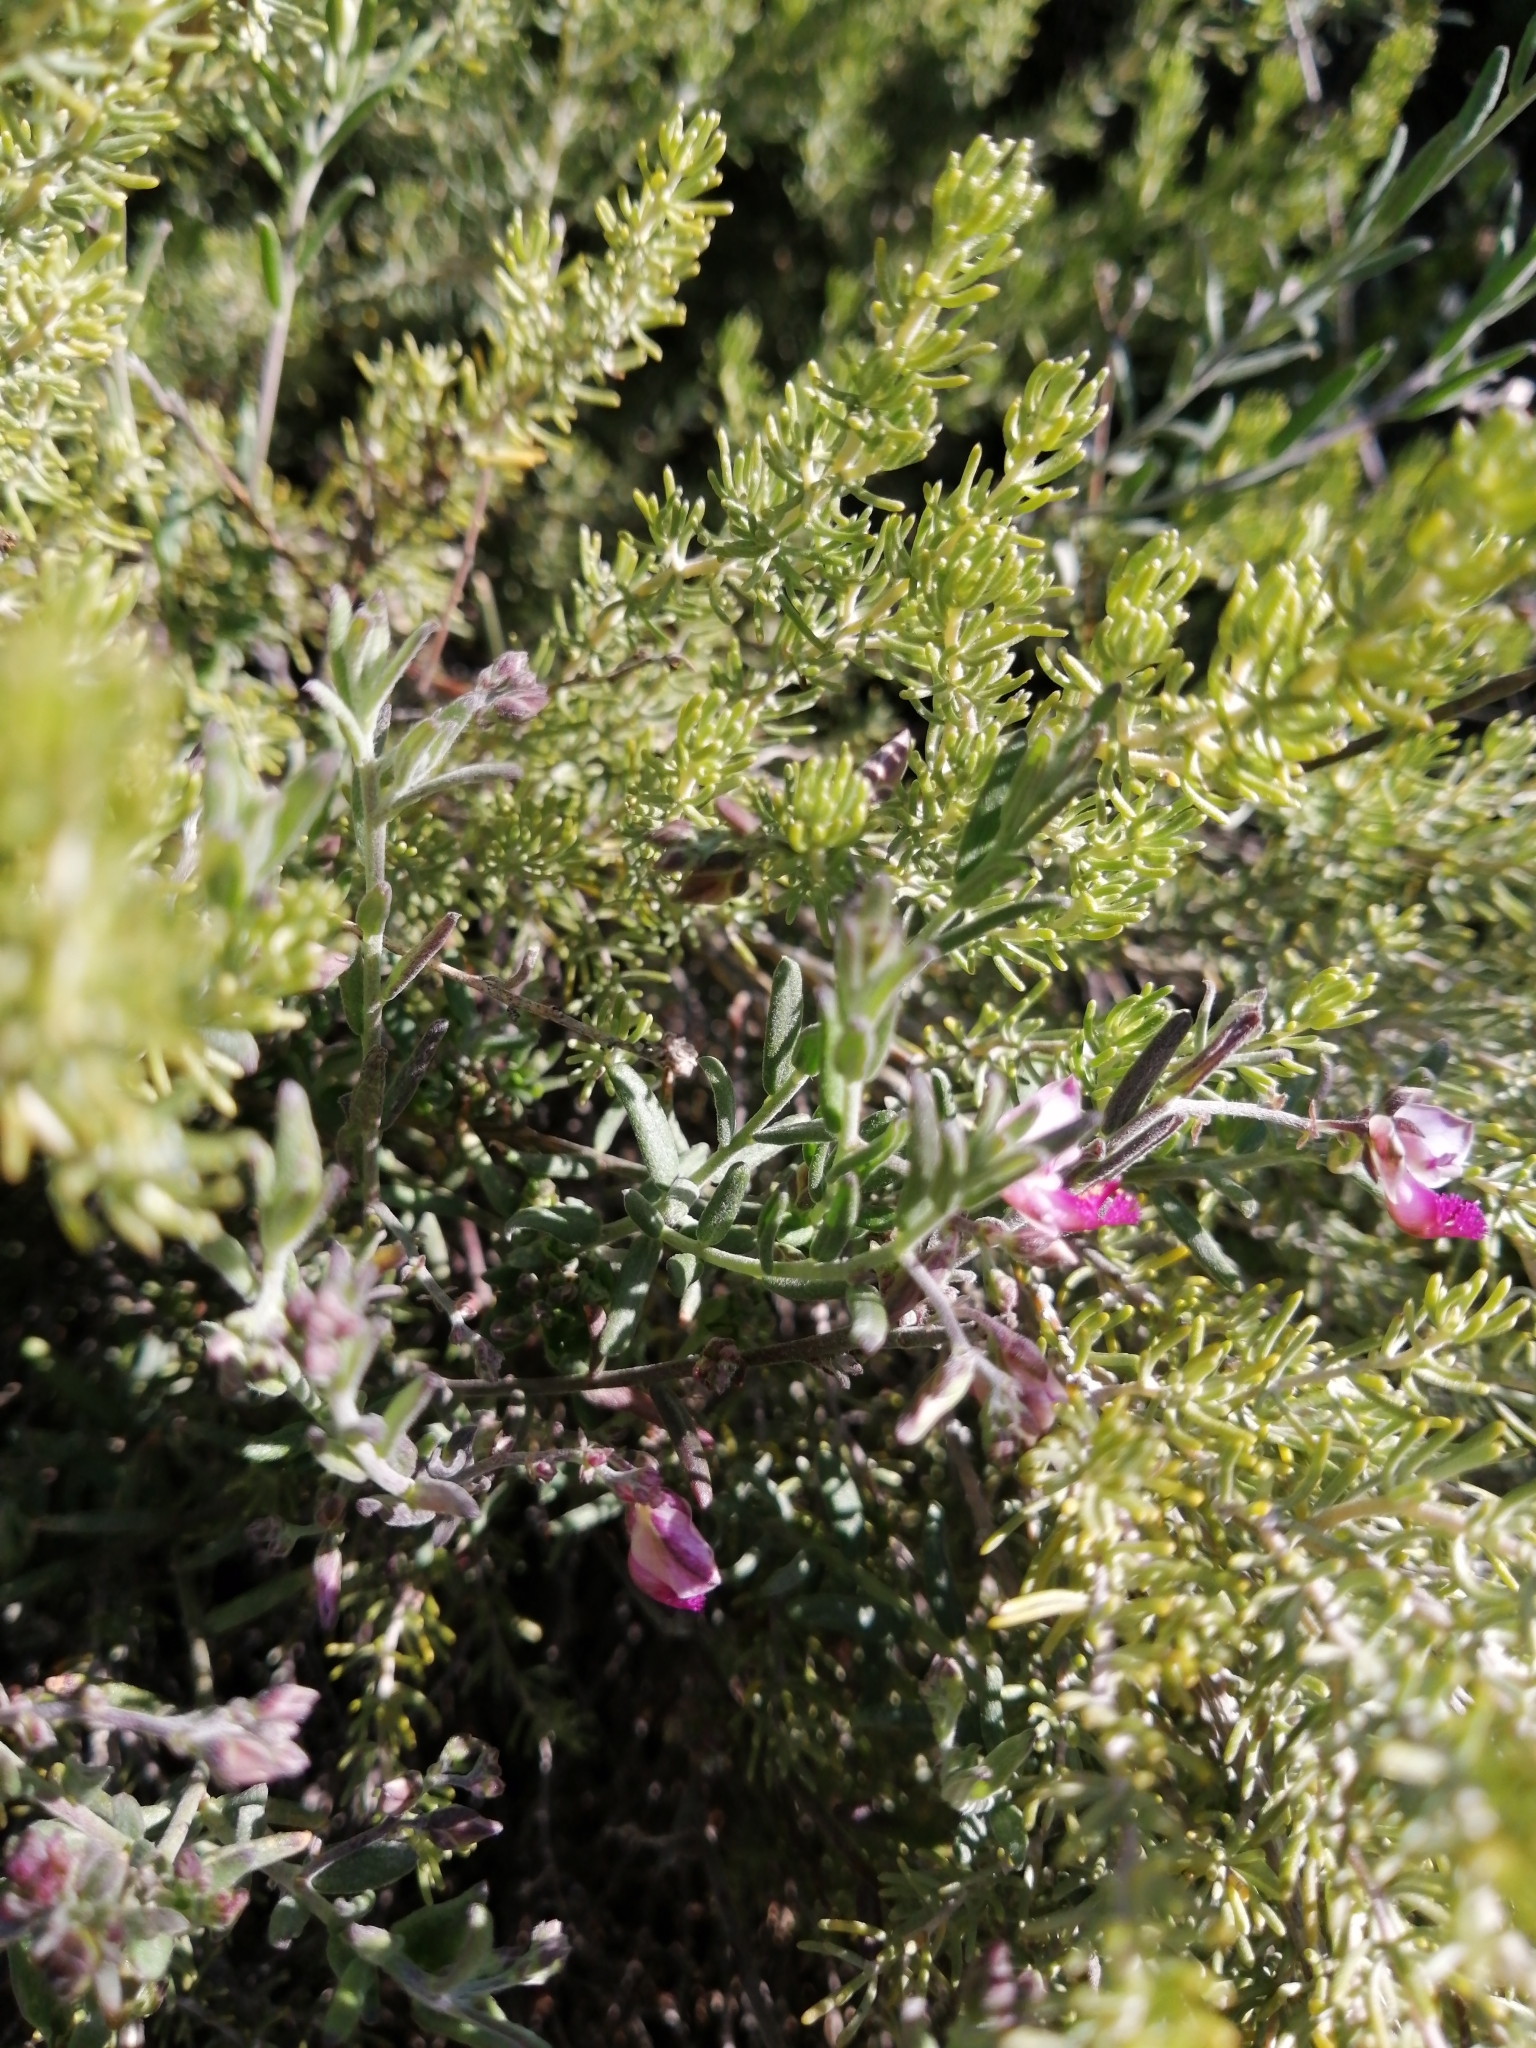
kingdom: Plantae
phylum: Tracheophyta
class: Magnoliopsida
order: Fabales
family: Polygalaceae
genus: Polygala
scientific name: Polygala scabra
